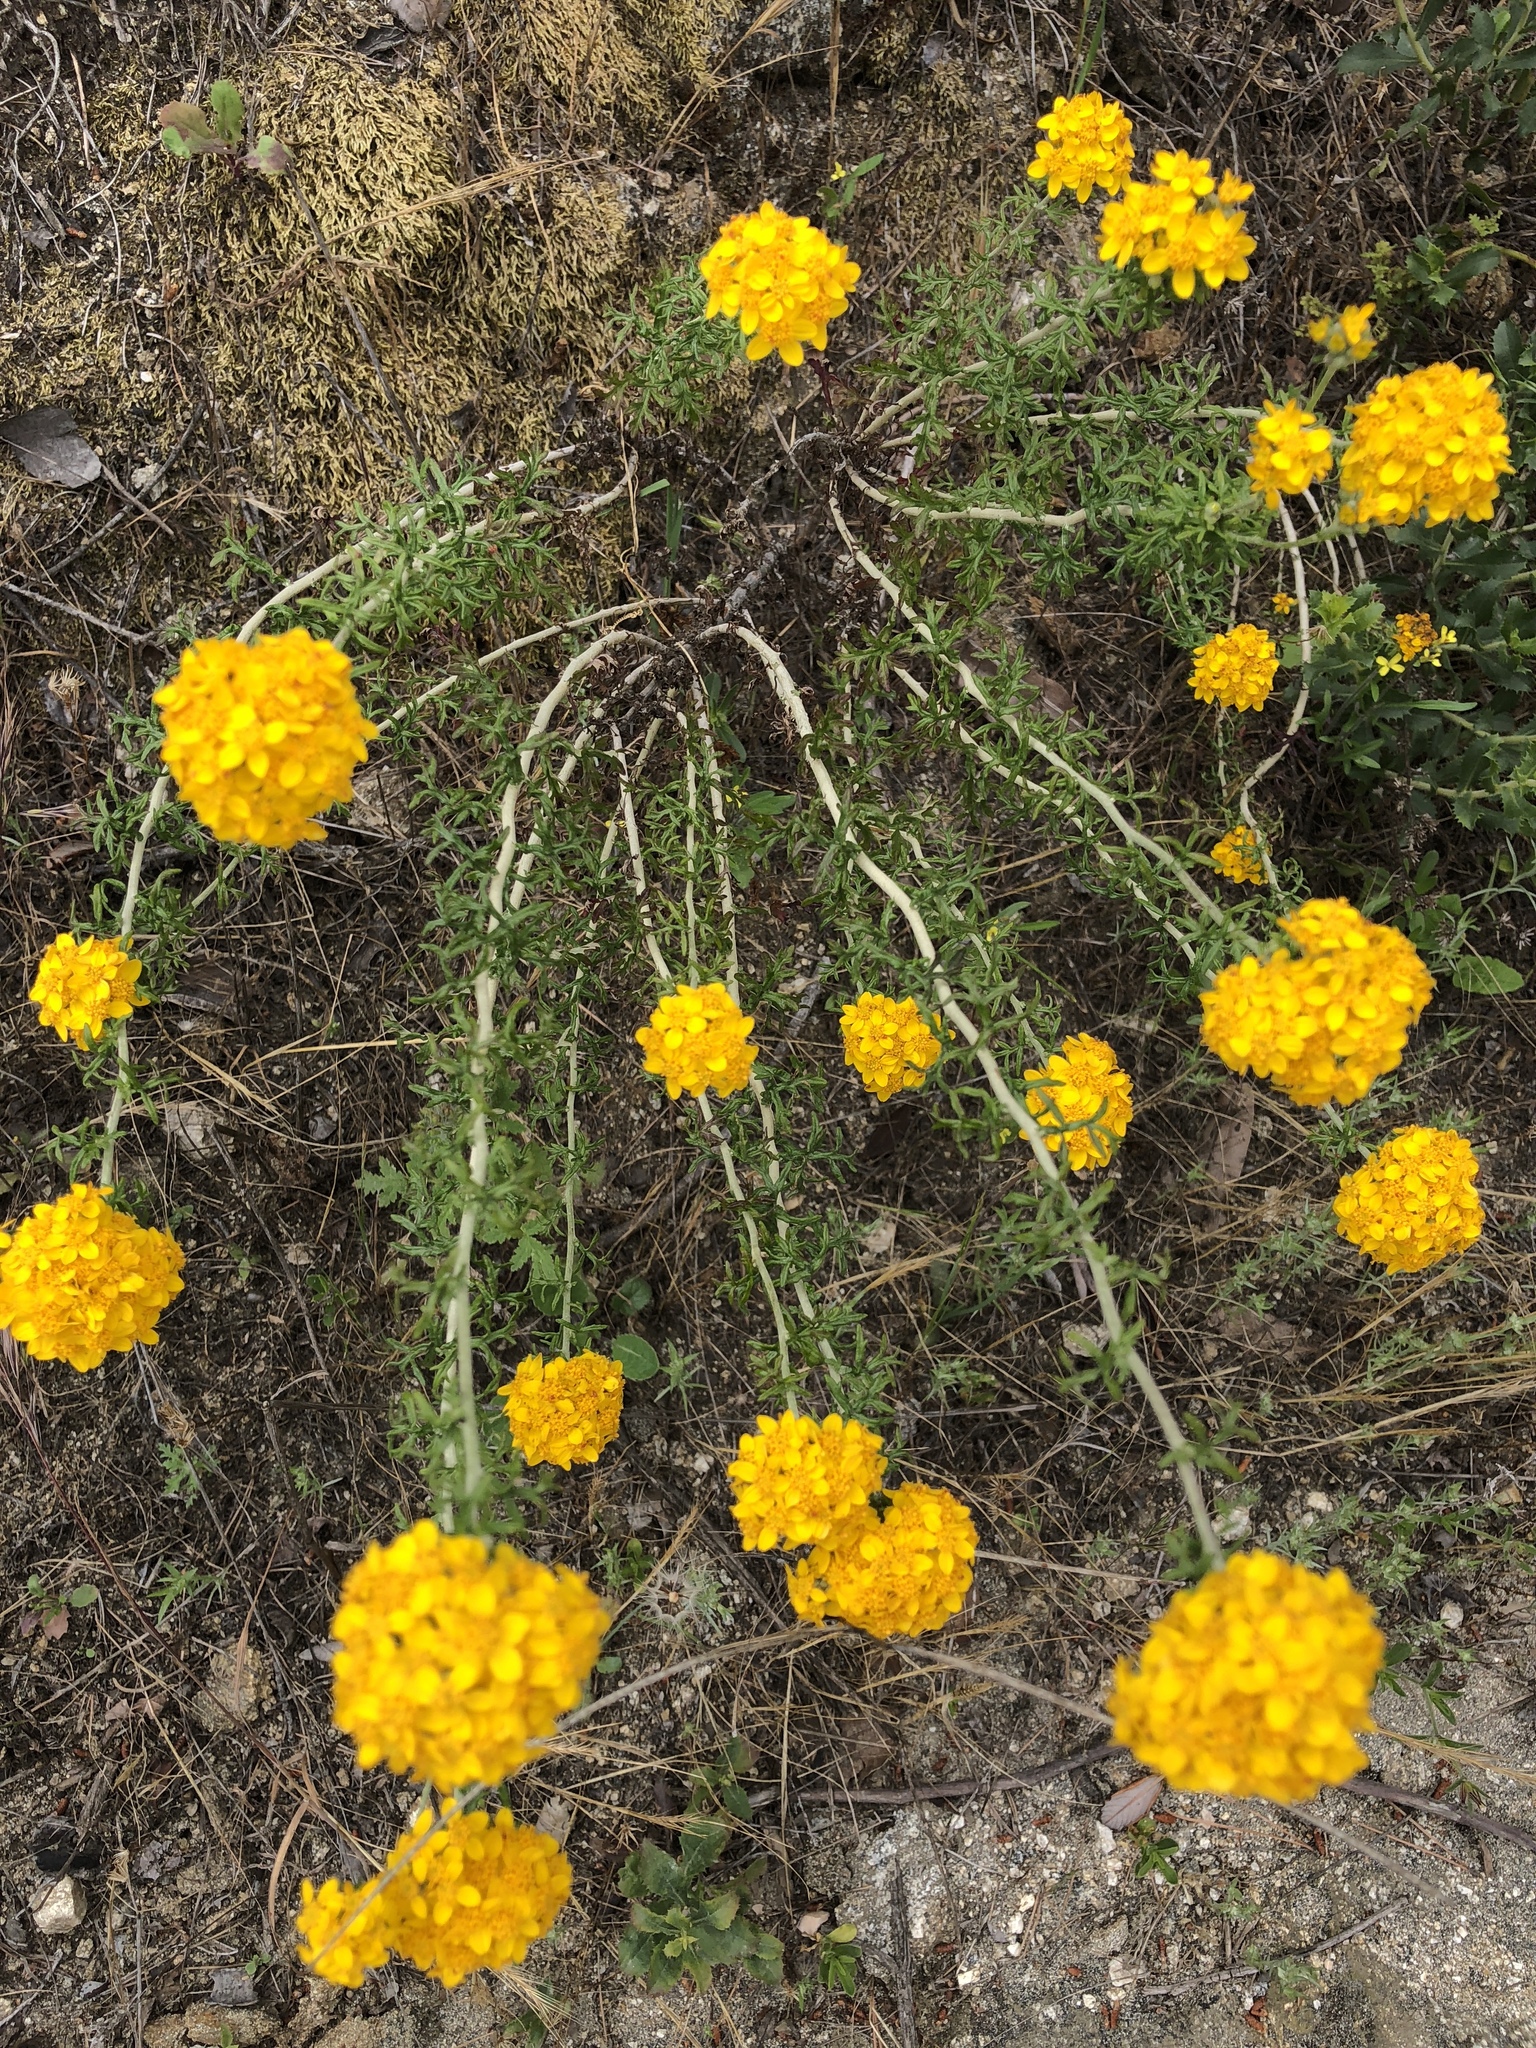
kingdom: Plantae
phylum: Tracheophyta
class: Magnoliopsida
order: Asterales
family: Asteraceae
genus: Eriophyllum
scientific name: Eriophyllum confertiflorum
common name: Golden-yarrow
